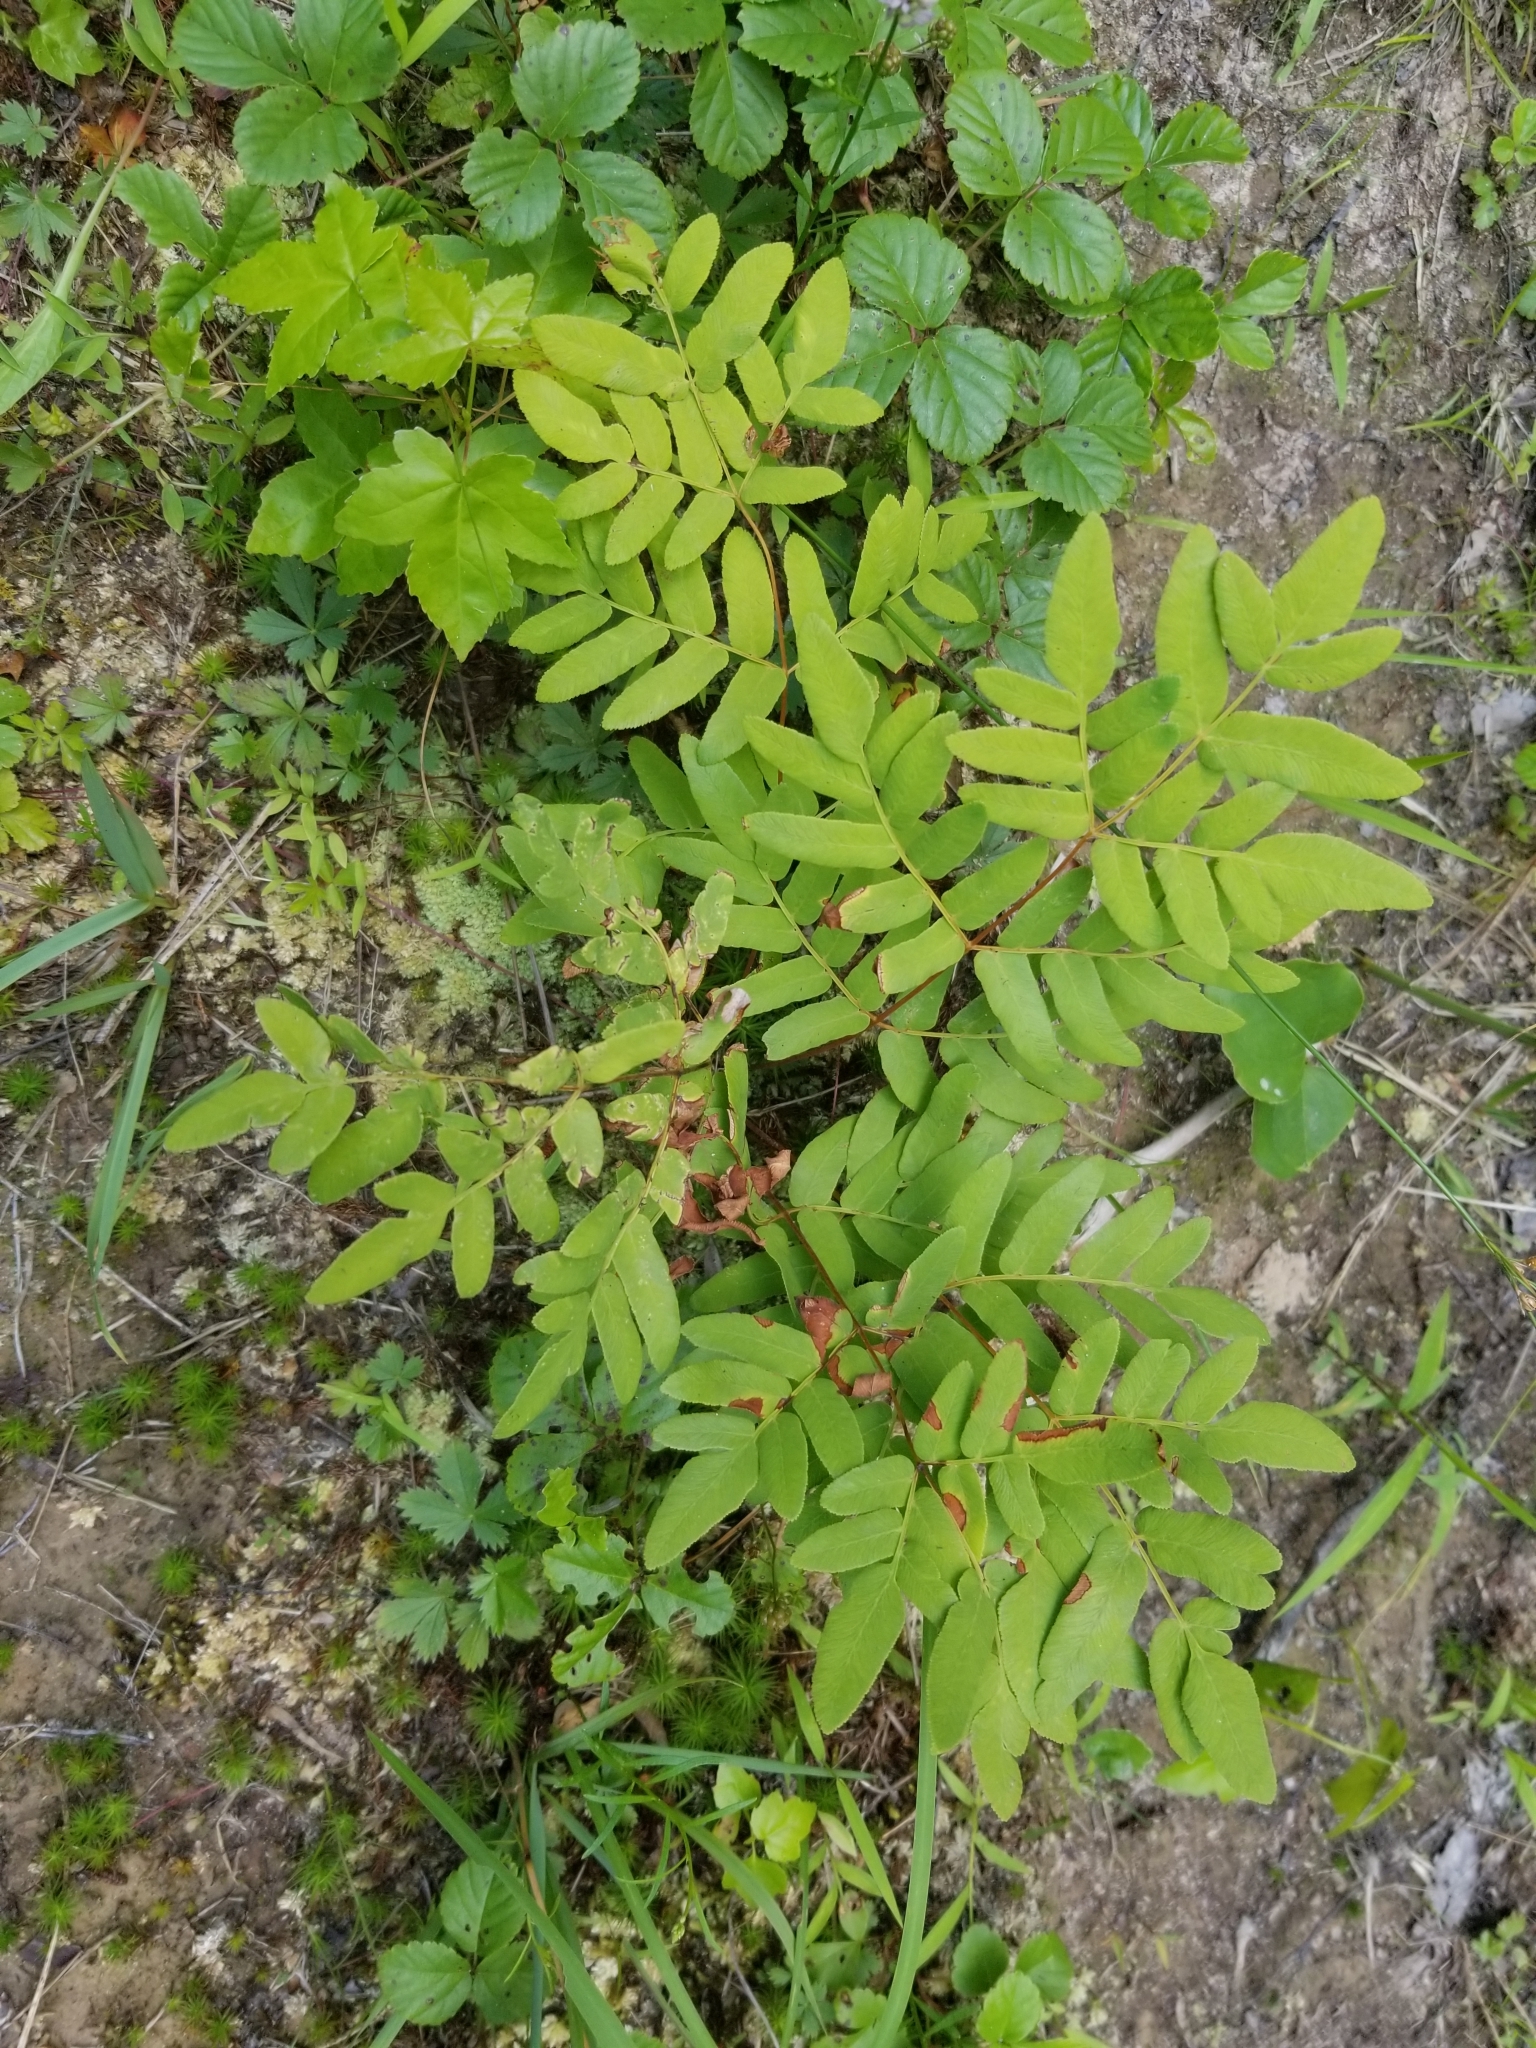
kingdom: Plantae
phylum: Tracheophyta
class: Polypodiopsida
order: Osmundales
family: Osmundaceae
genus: Osmunda
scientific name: Osmunda spectabilis
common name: American royal fern
